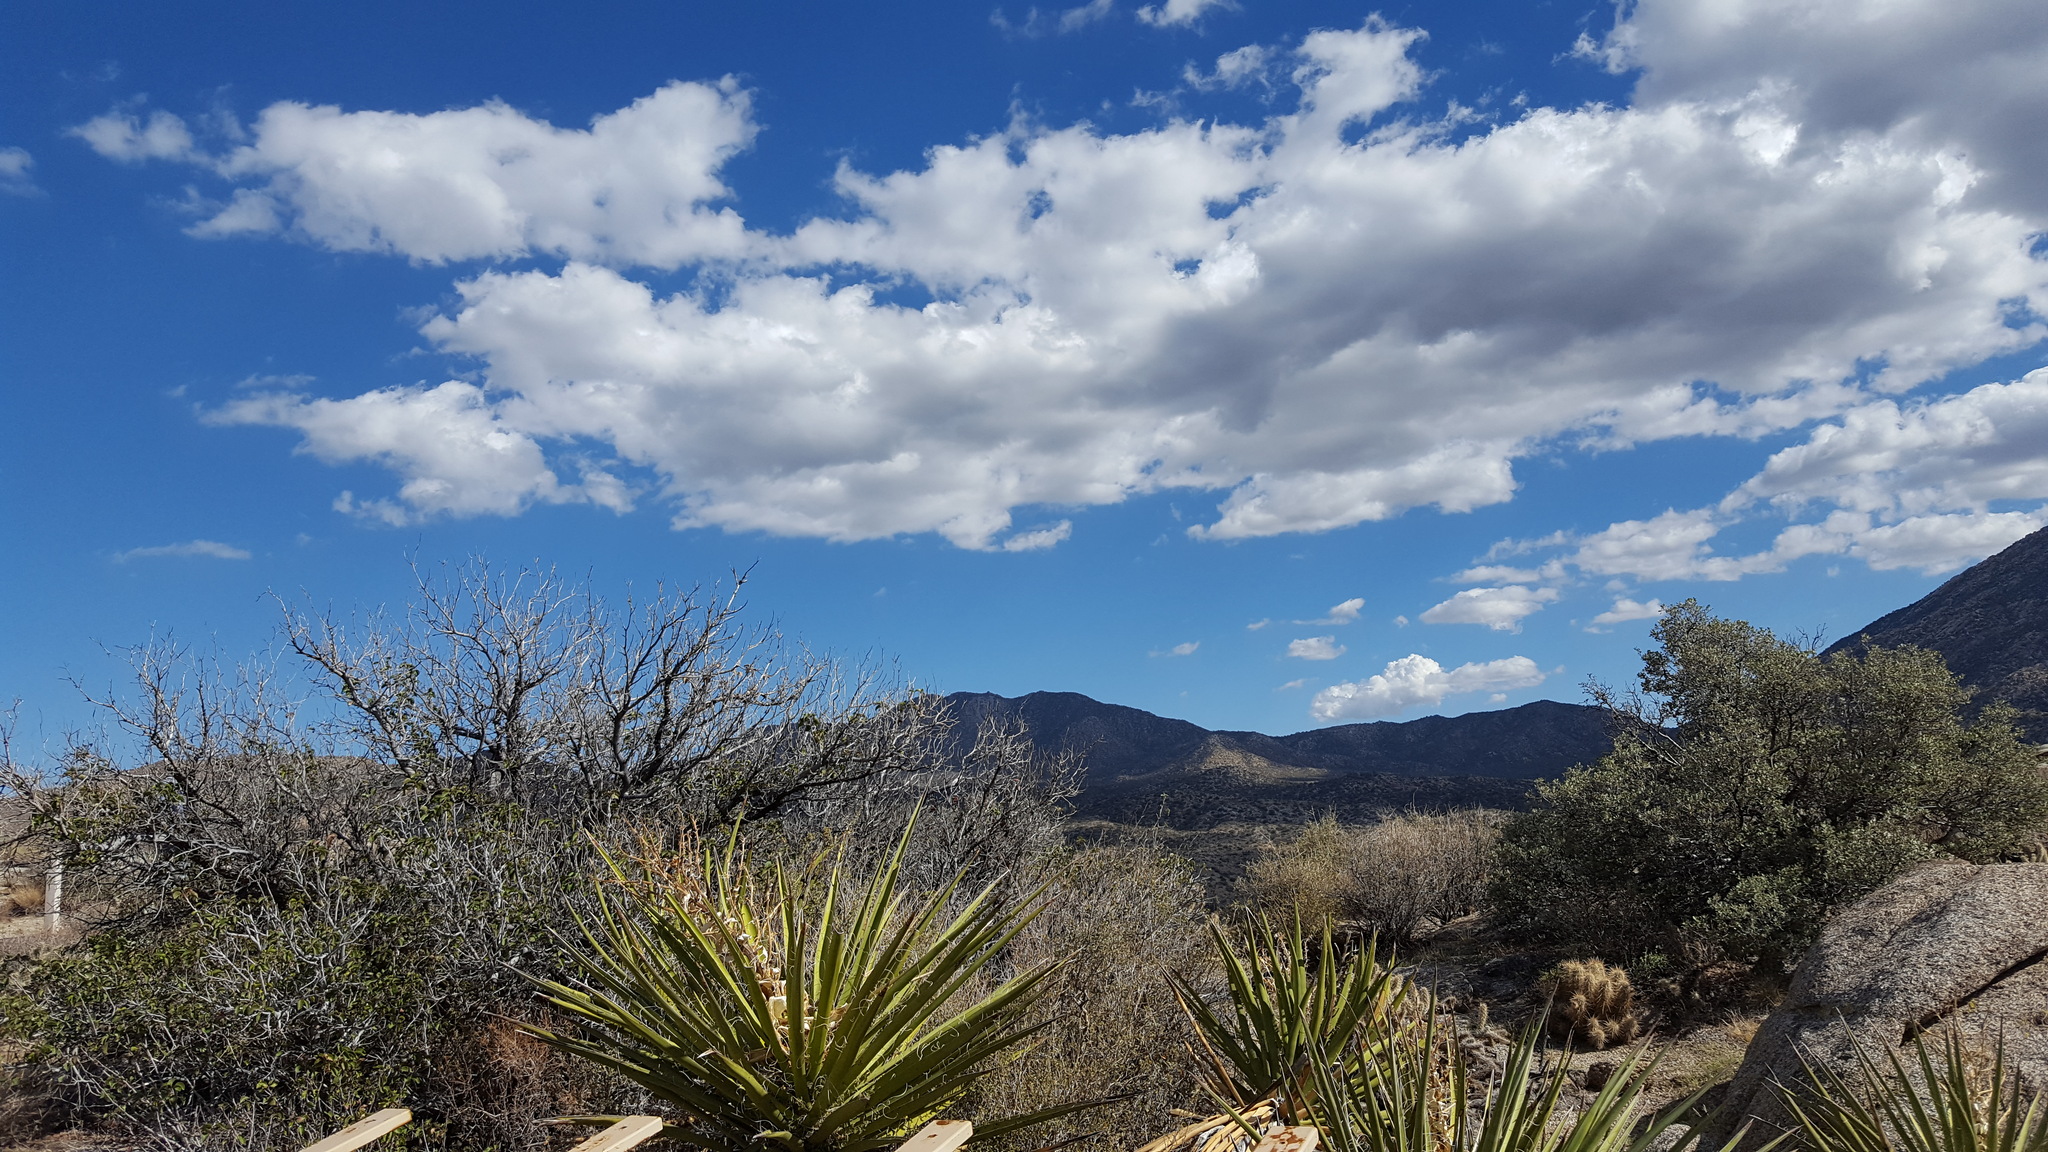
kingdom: Plantae
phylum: Tracheophyta
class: Liliopsida
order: Asparagales
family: Asparagaceae
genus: Yucca
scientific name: Yucca schidigera
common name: Mojave yucca
